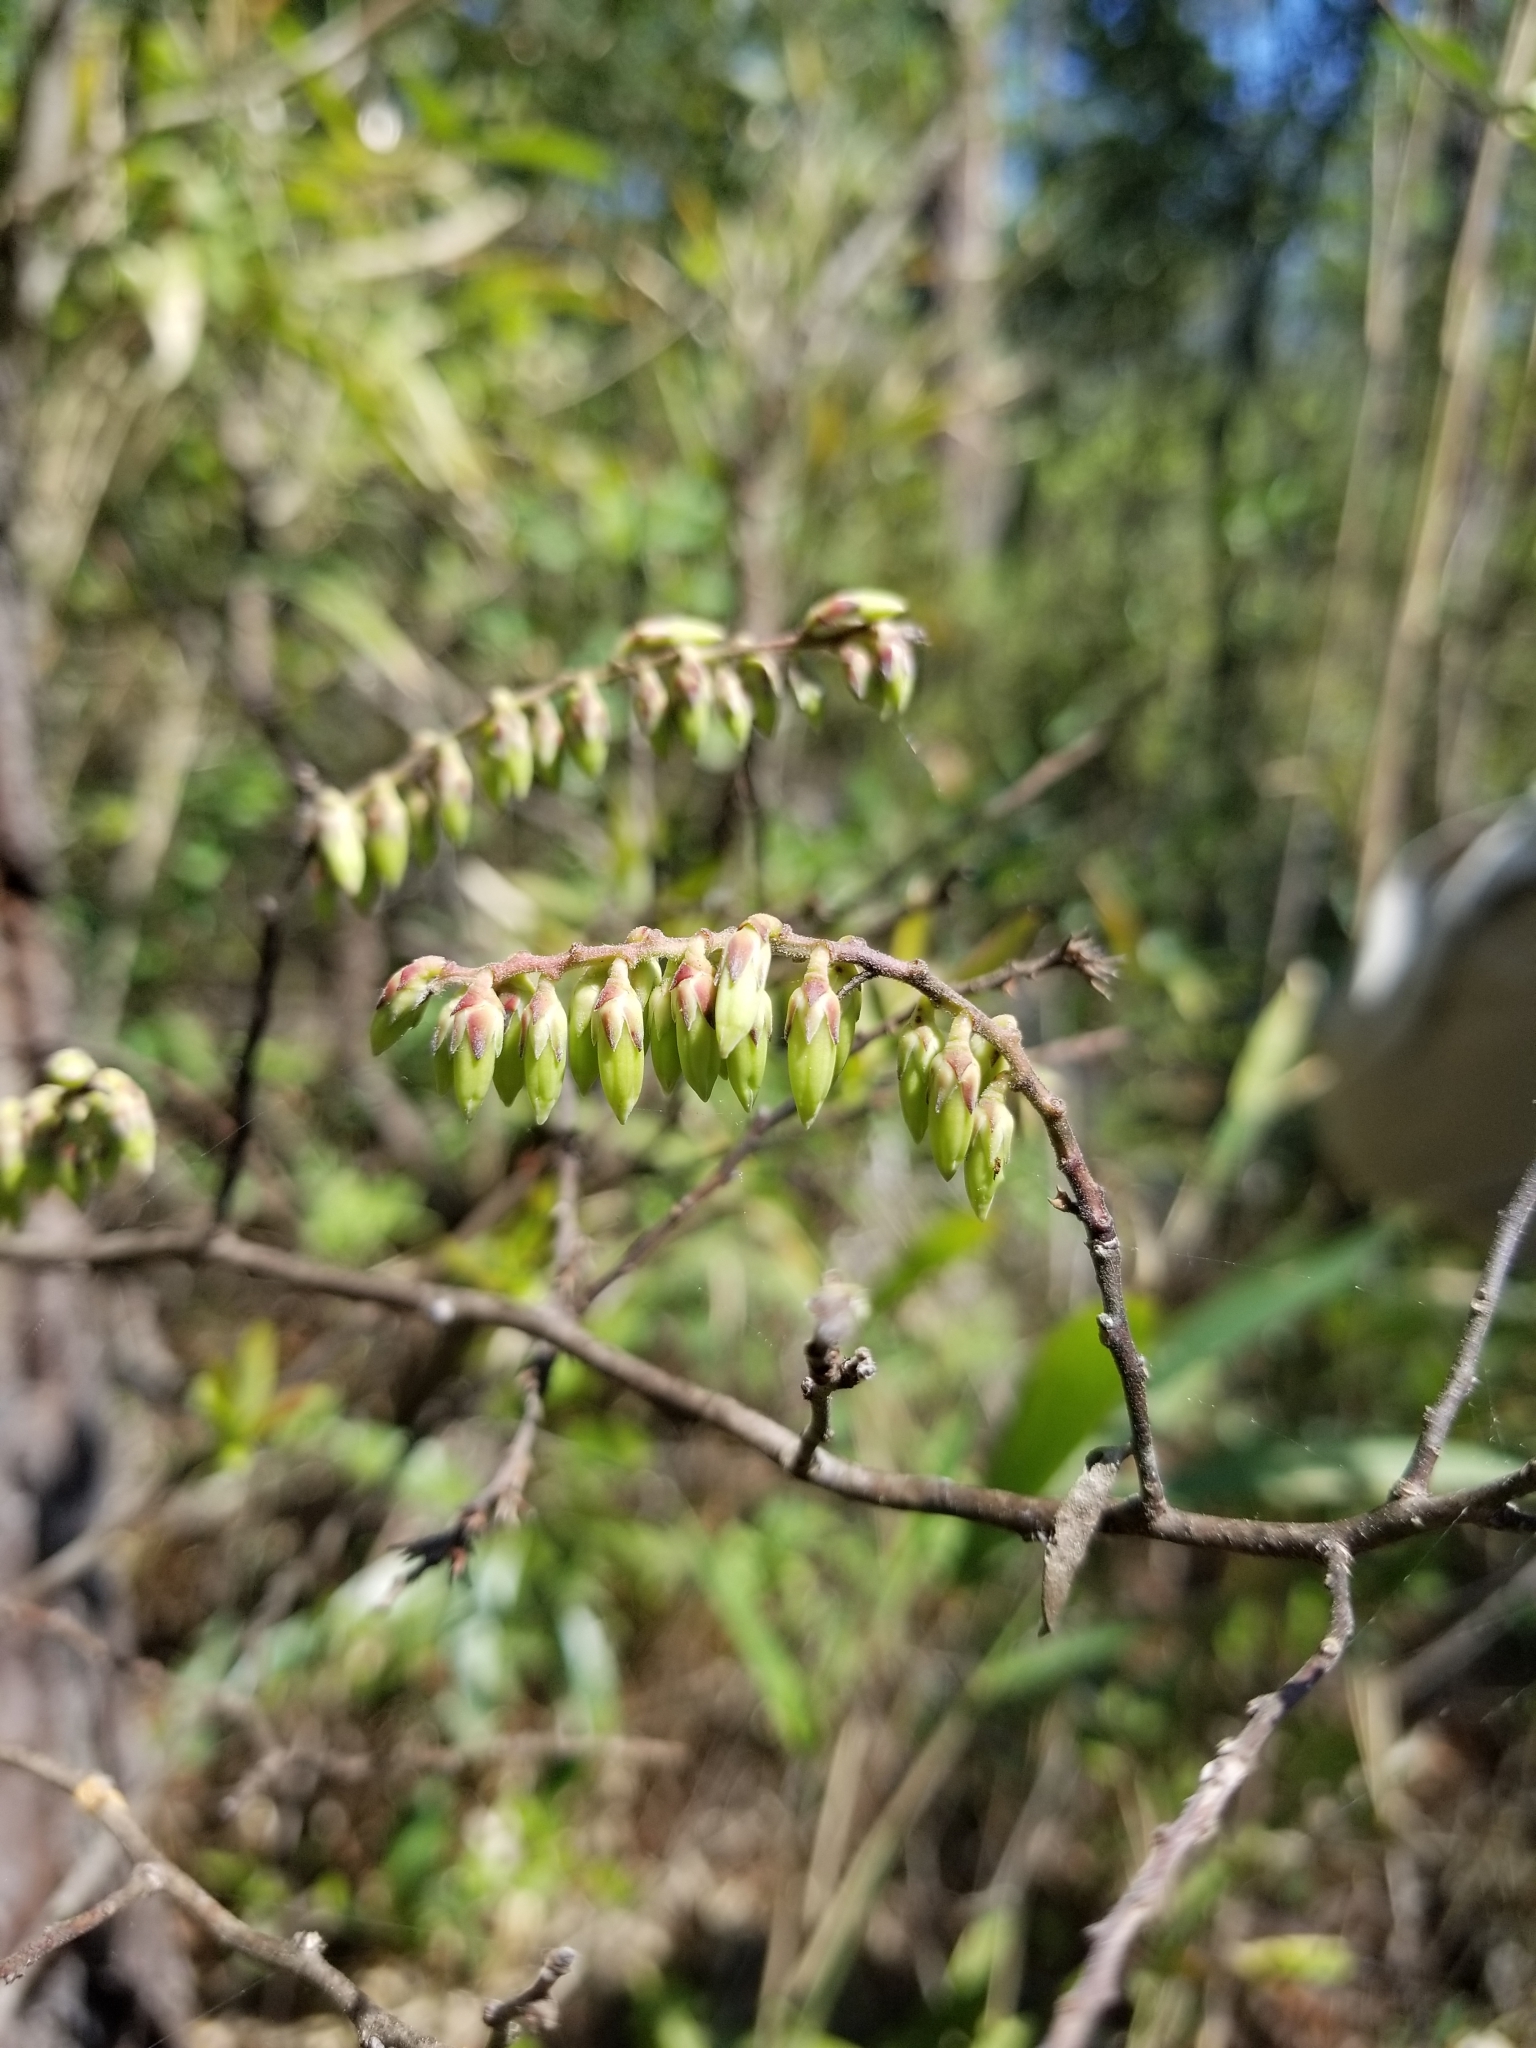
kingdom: Plantae
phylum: Tracheophyta
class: Magnoliopsida
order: Ericales
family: Ericaceae
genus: Eubotrys
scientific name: Eubotrys racemosa
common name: Fetterbush
